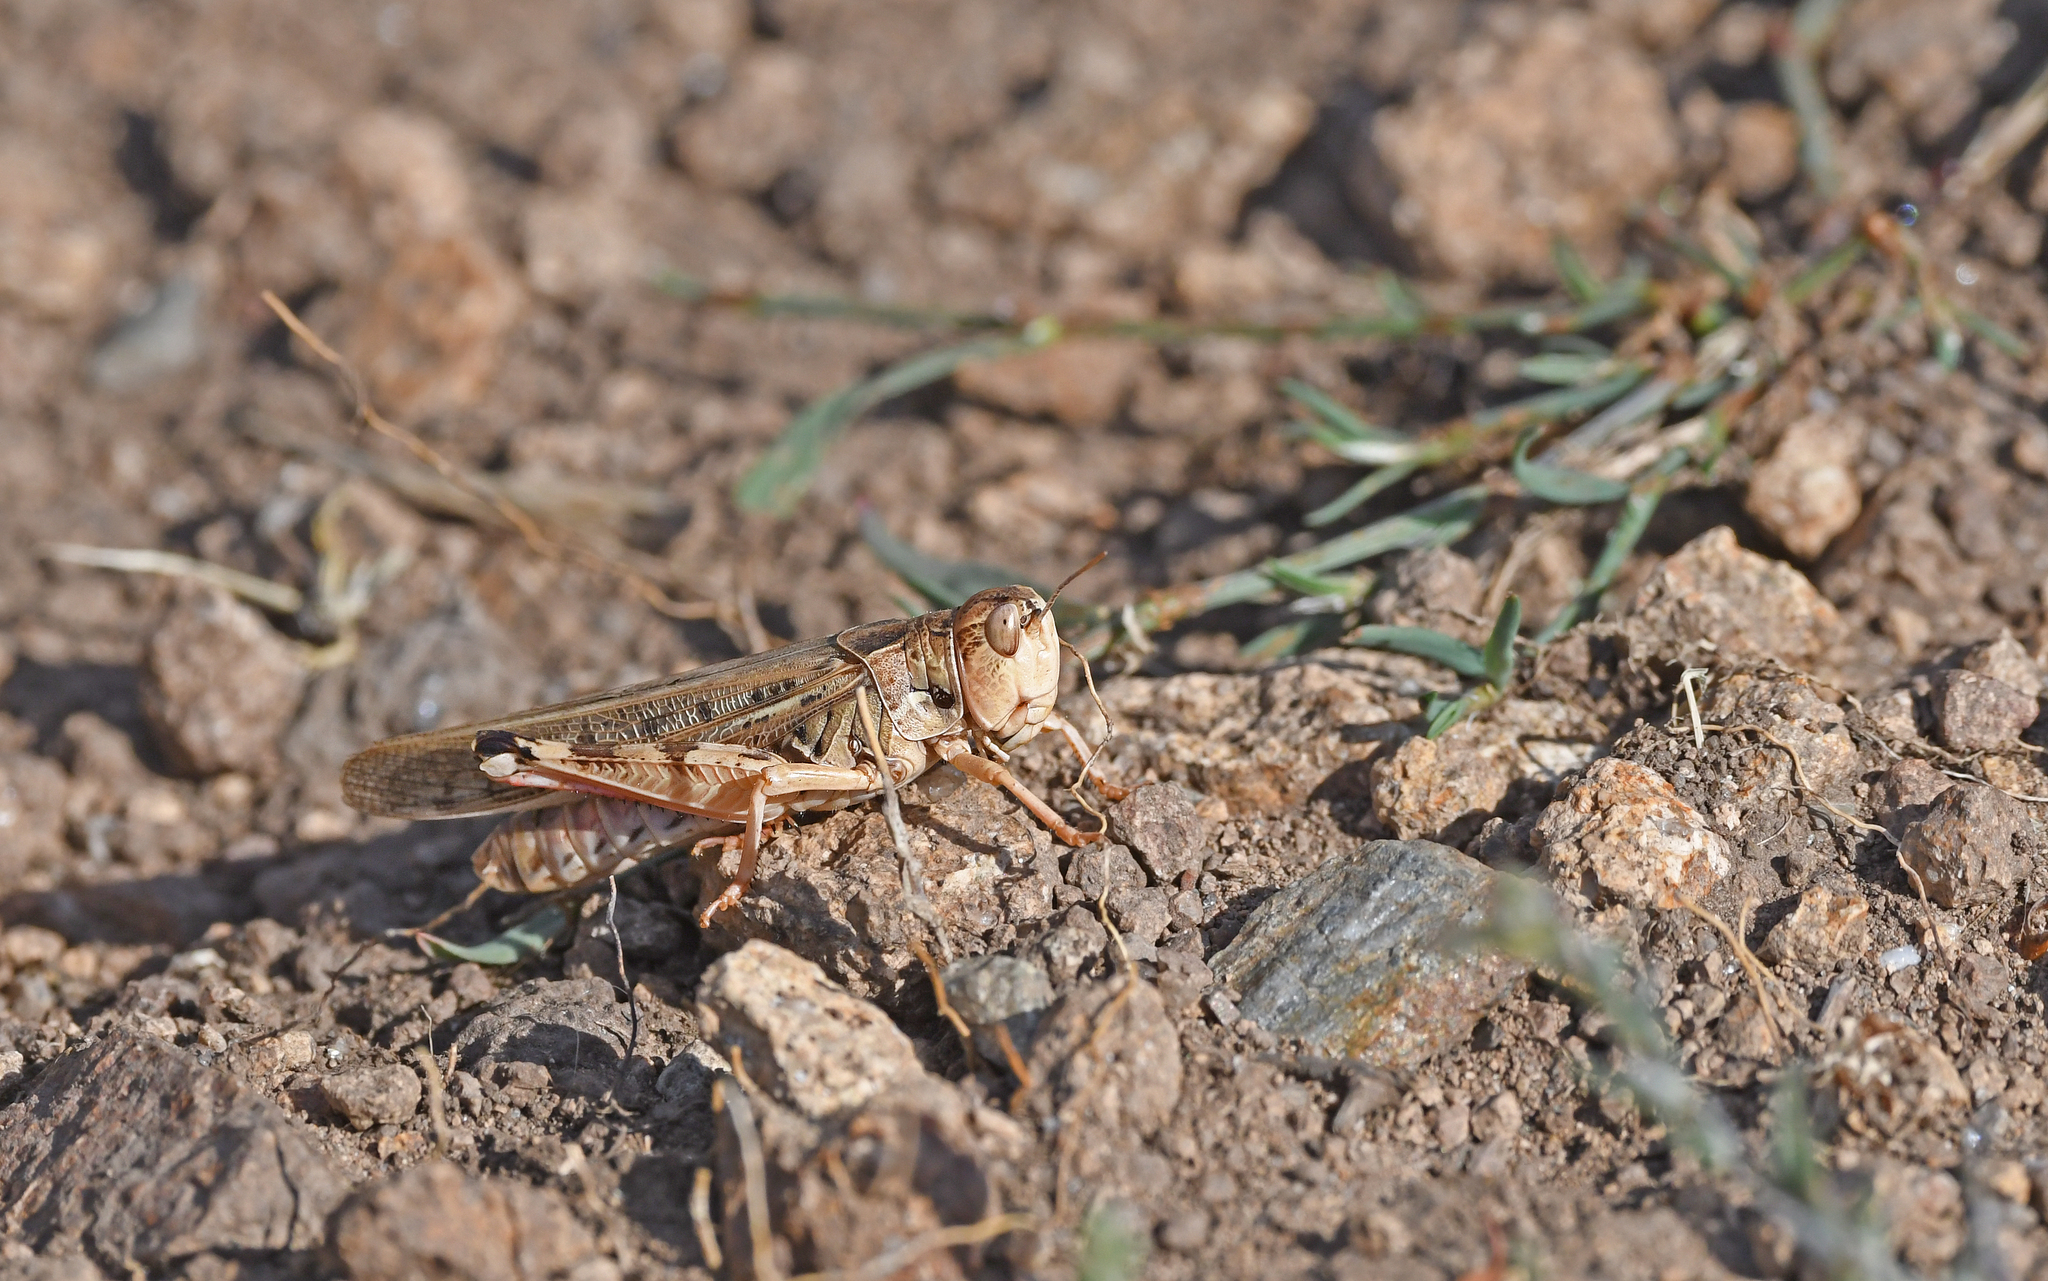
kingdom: Animalia
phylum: Arthropoda
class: Insecta
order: Orthoptera
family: Acrididae
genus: Dociostaurus
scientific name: Dociostaurus maroccanus
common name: Moroccan locust
